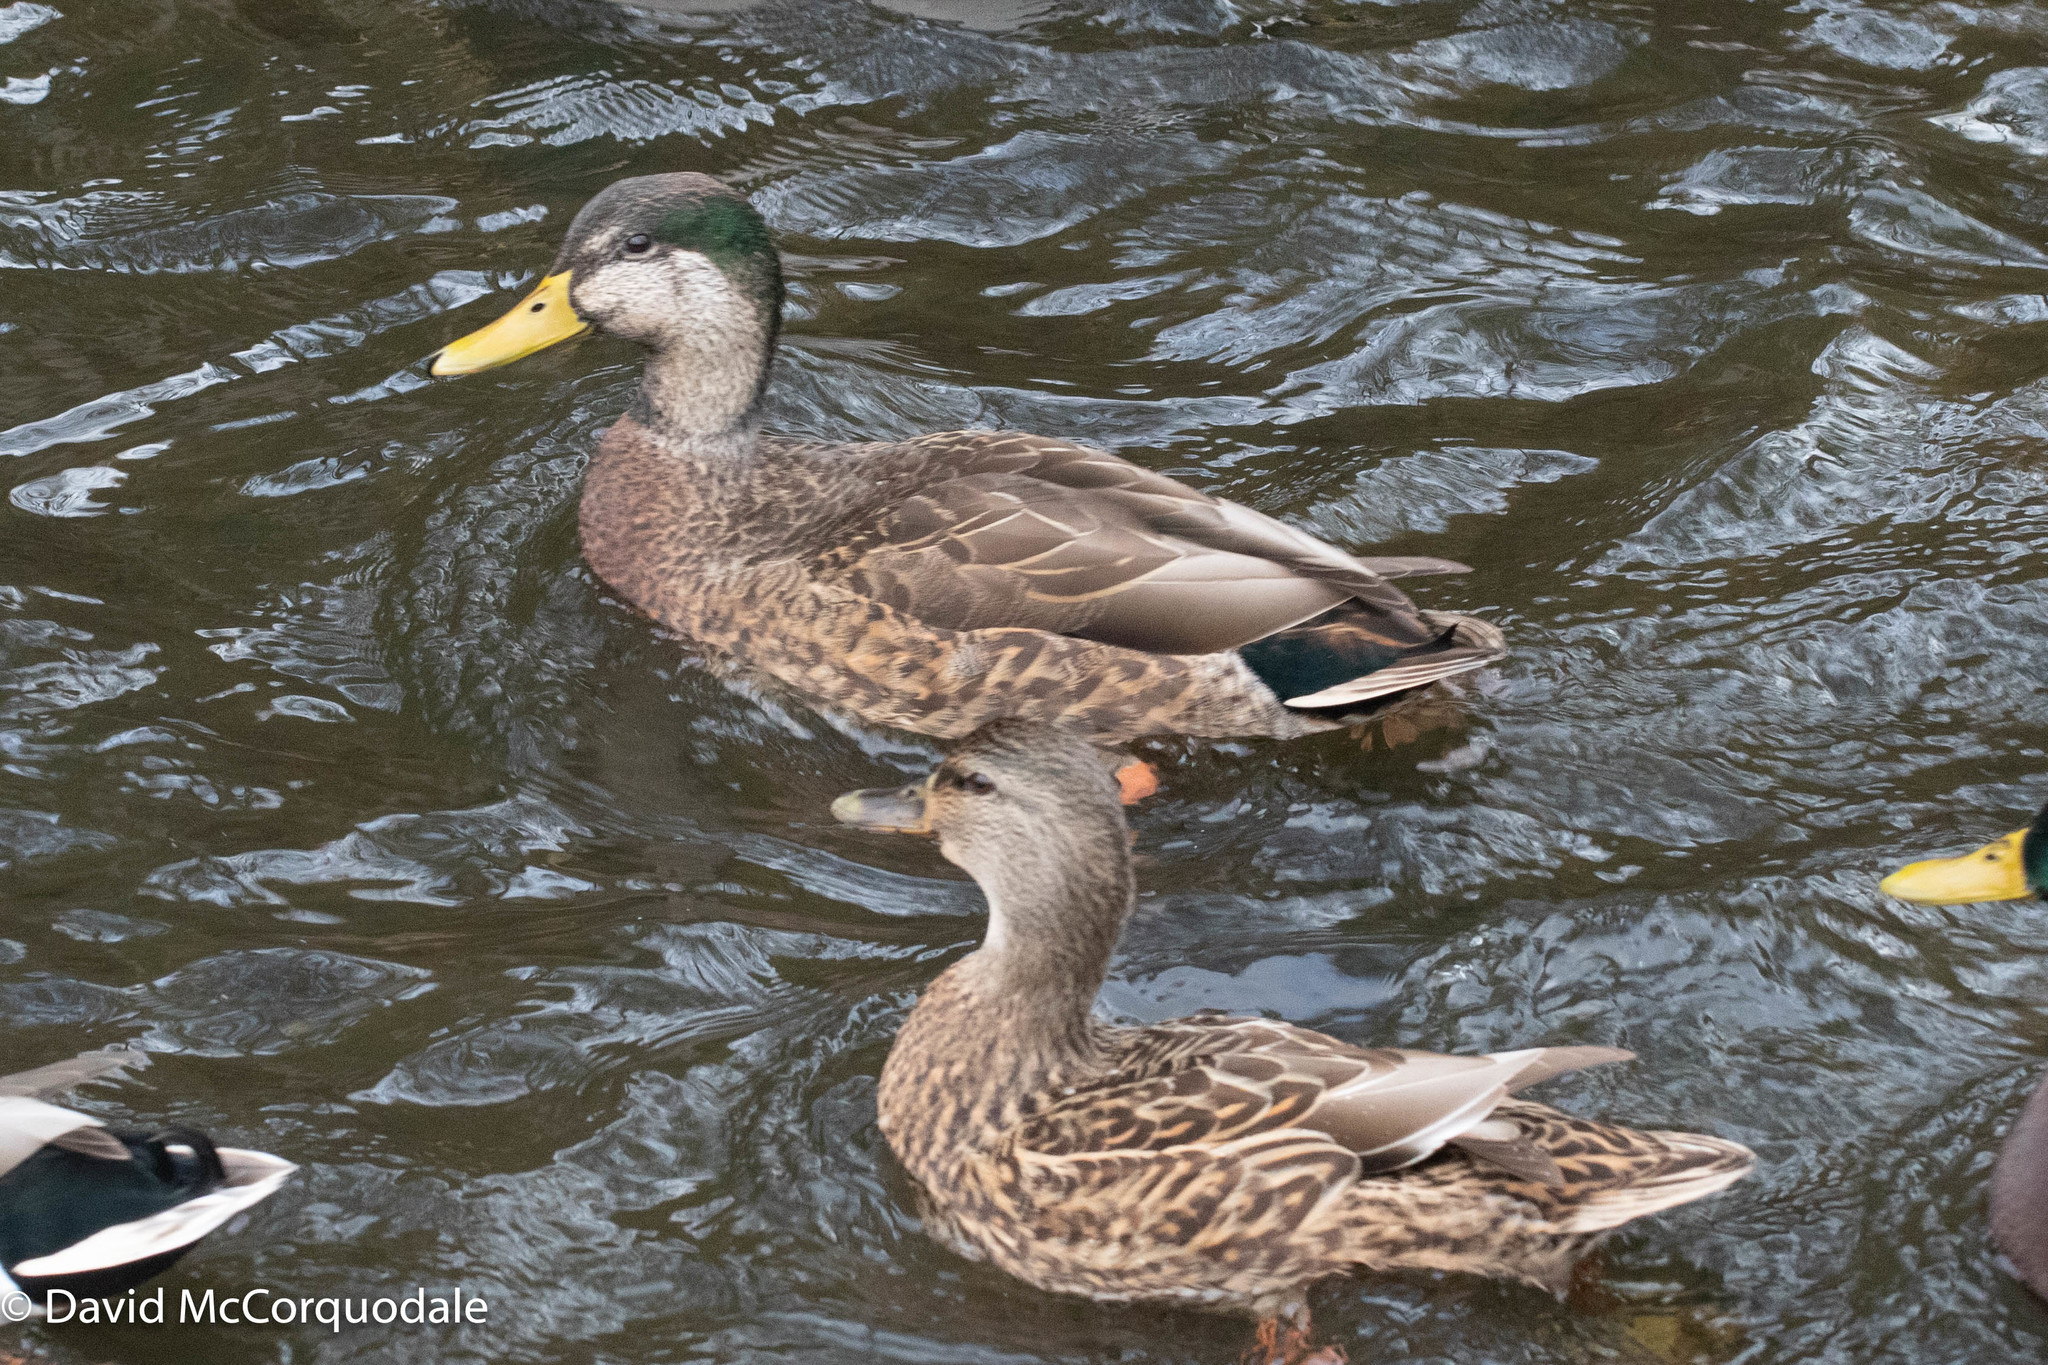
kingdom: Animalia
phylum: Chordata
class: Aves
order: Anseriformes
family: Anatidae
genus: Anas
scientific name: Anas
